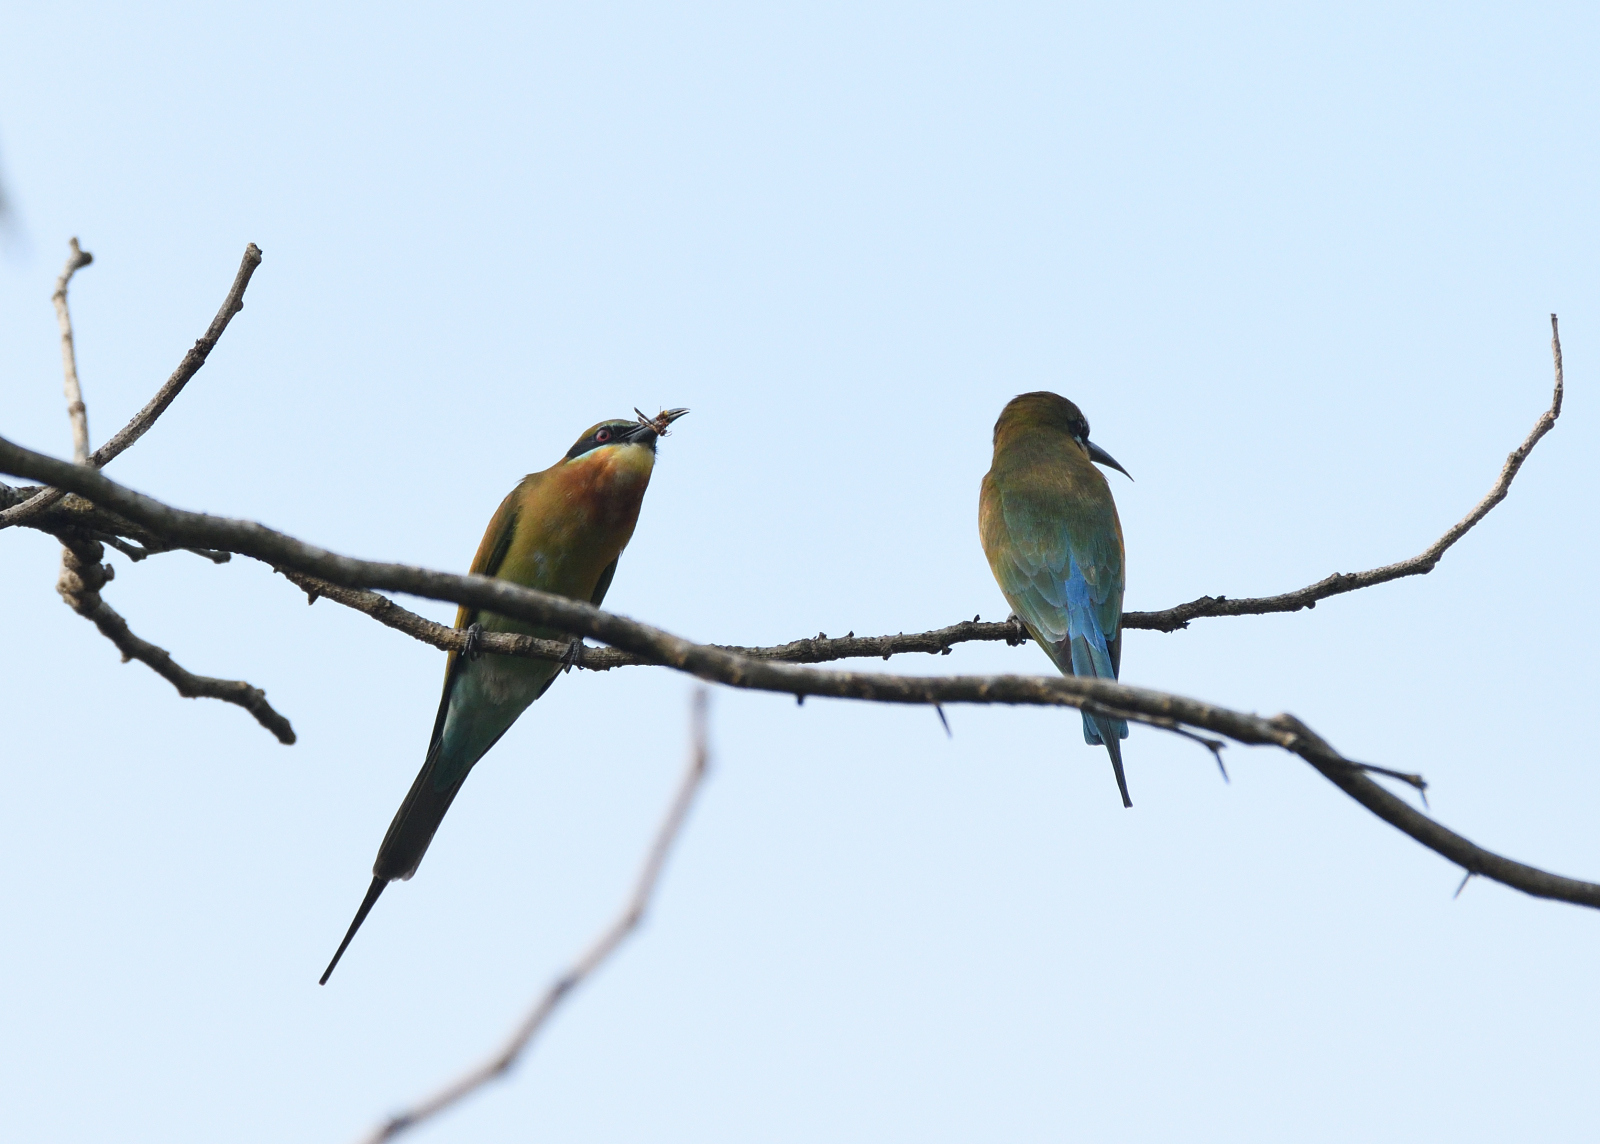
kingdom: Animalia
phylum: Chordata
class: Aves
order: Coraciiformes
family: Meropidae
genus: Merops
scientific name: Merops philippinus
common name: Blue-tailed bee-eater
